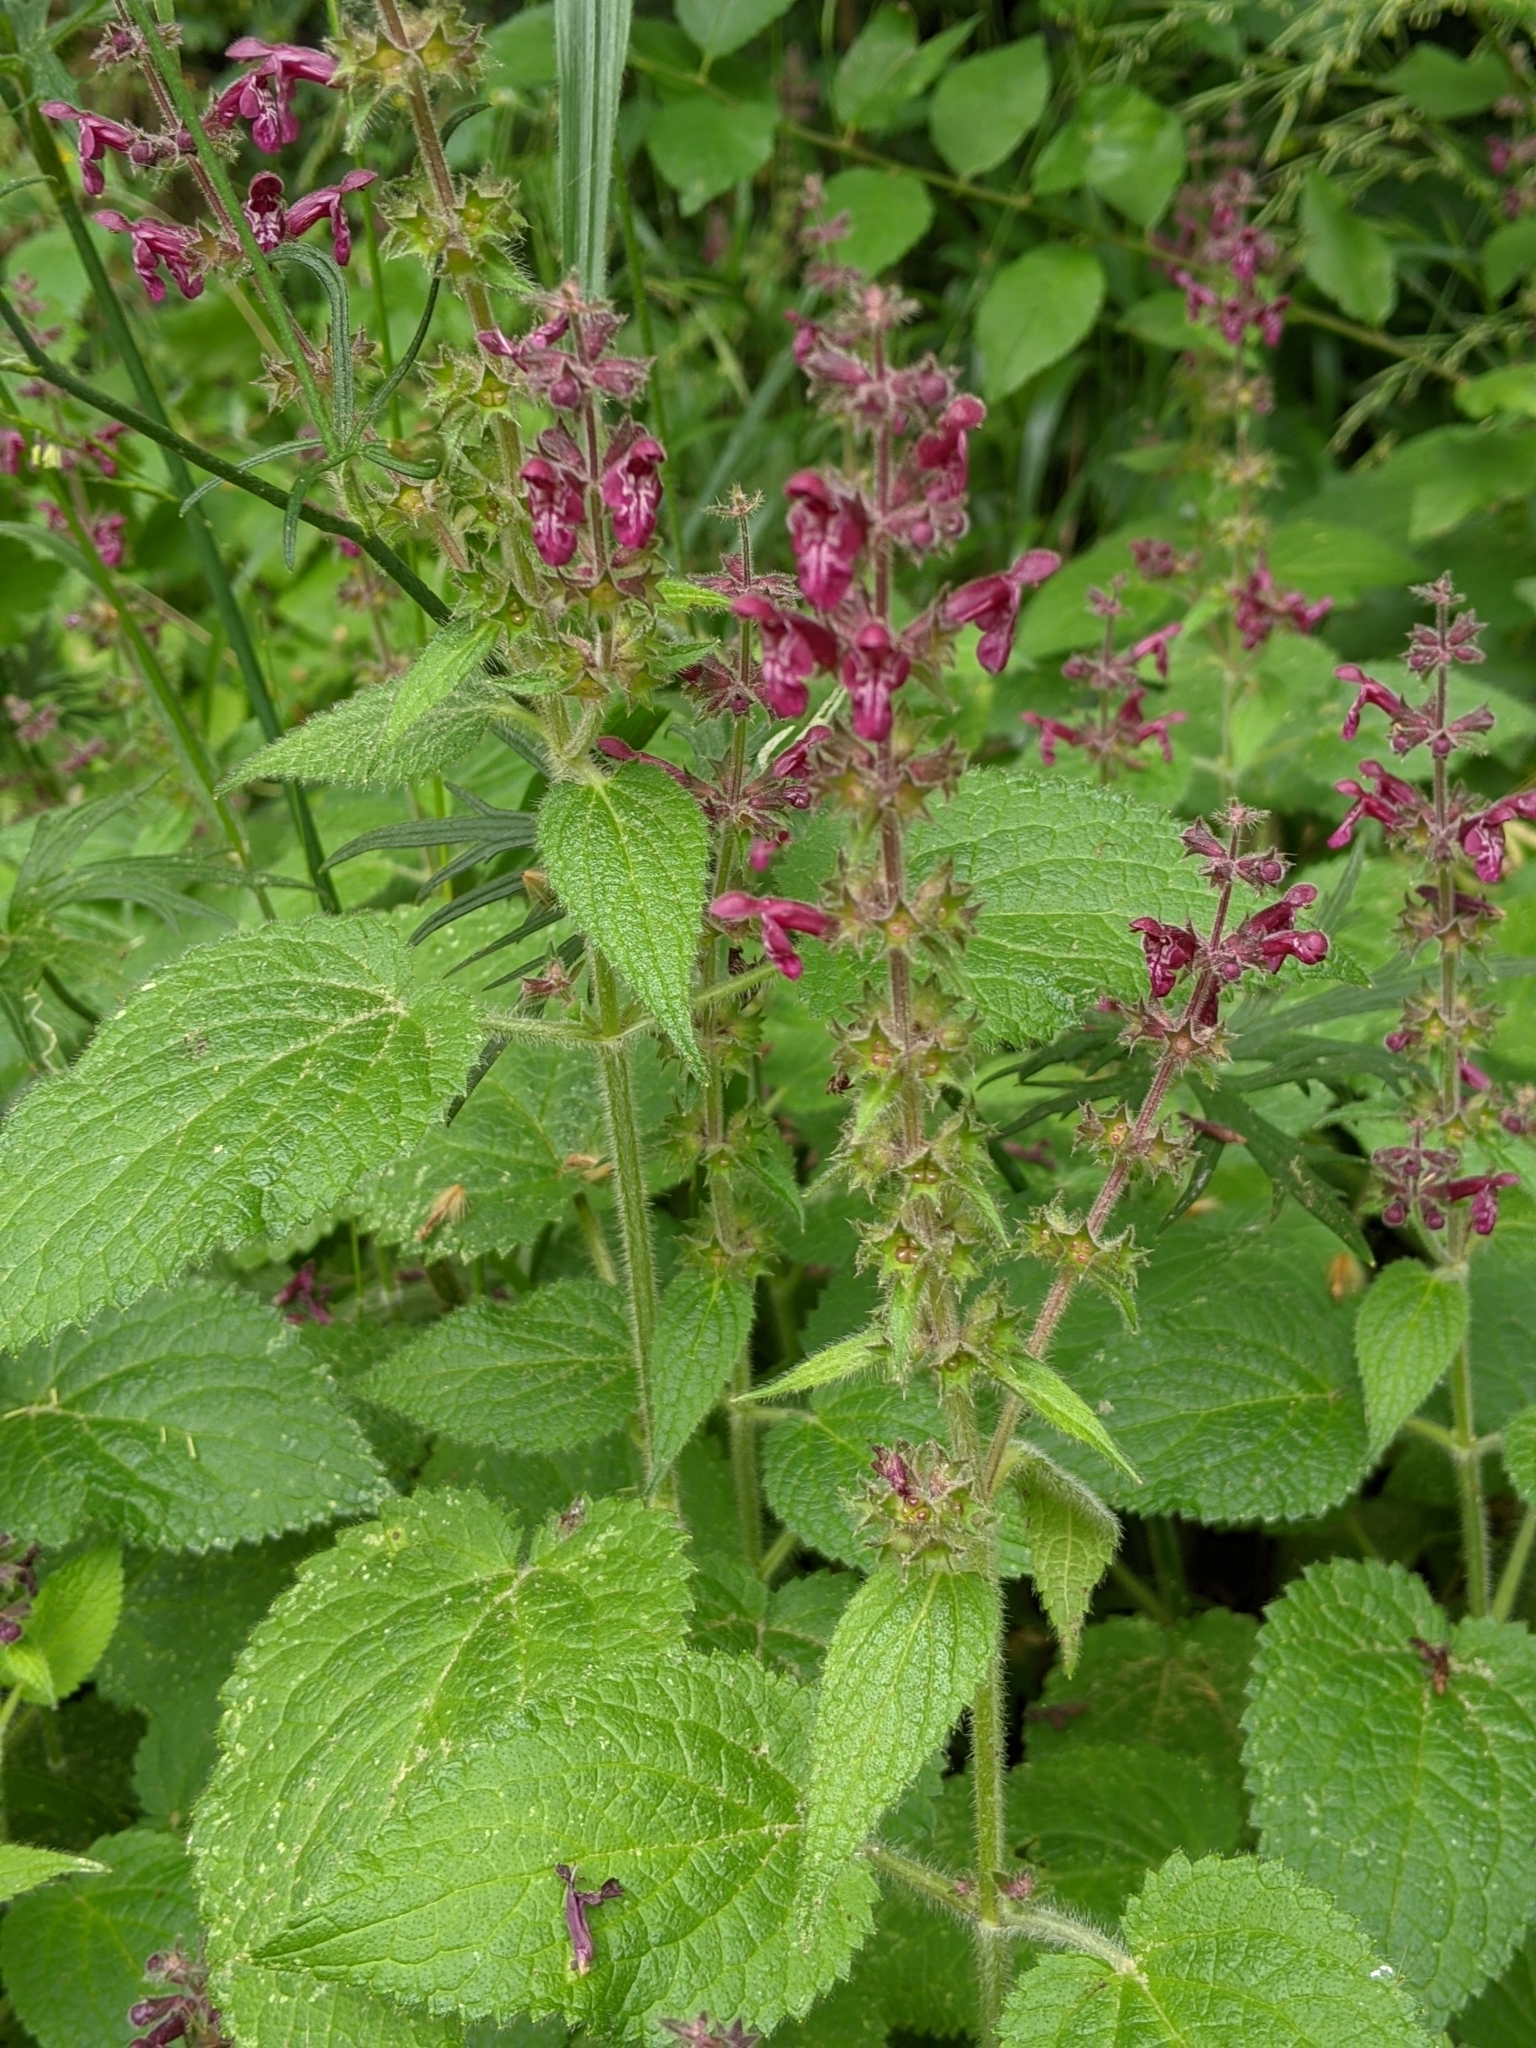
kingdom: Plantae
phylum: Tracheophyta
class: Magnoliopsida
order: Lamiales
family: Lamiaceae
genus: Stachys
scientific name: Stachys sylvatica
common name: Hedge woundwort
